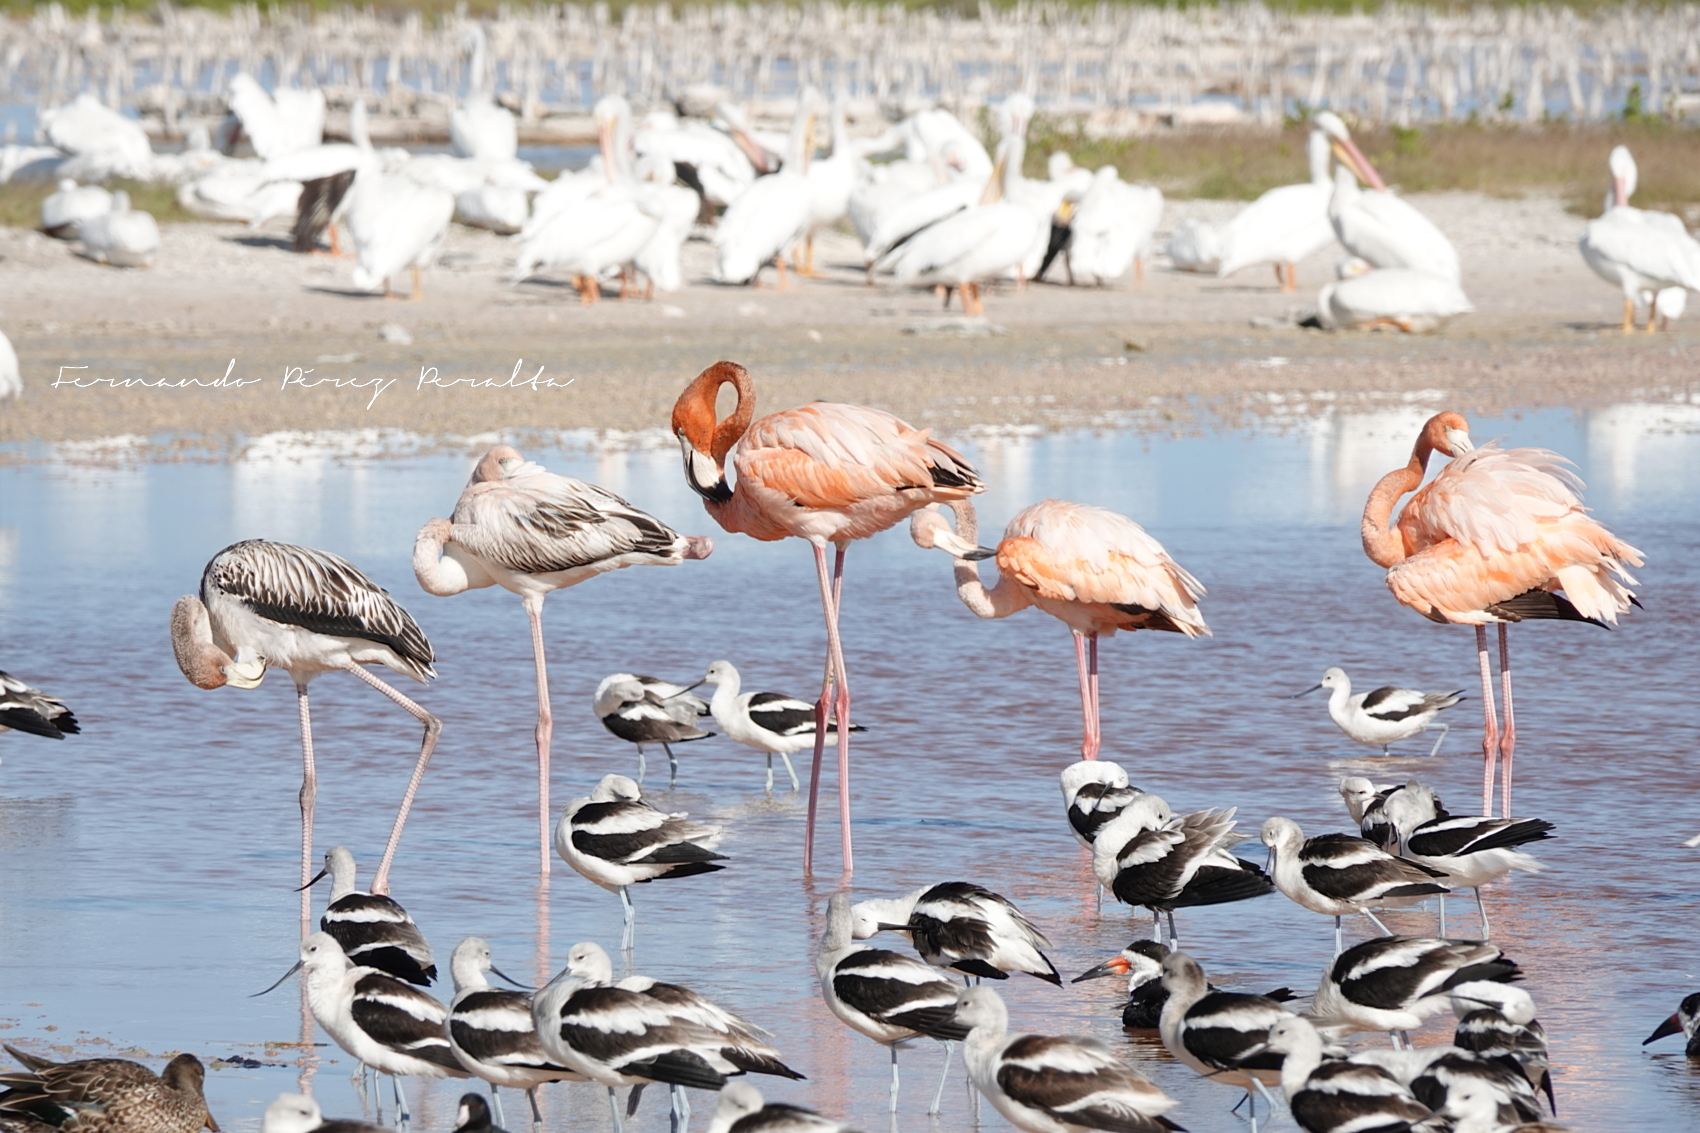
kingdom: Animalia
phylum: Chordata
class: Aves
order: Charadriiformes
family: Recurvirostridae
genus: Recurvirostra
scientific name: Recurvirostra americana
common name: American avocet
